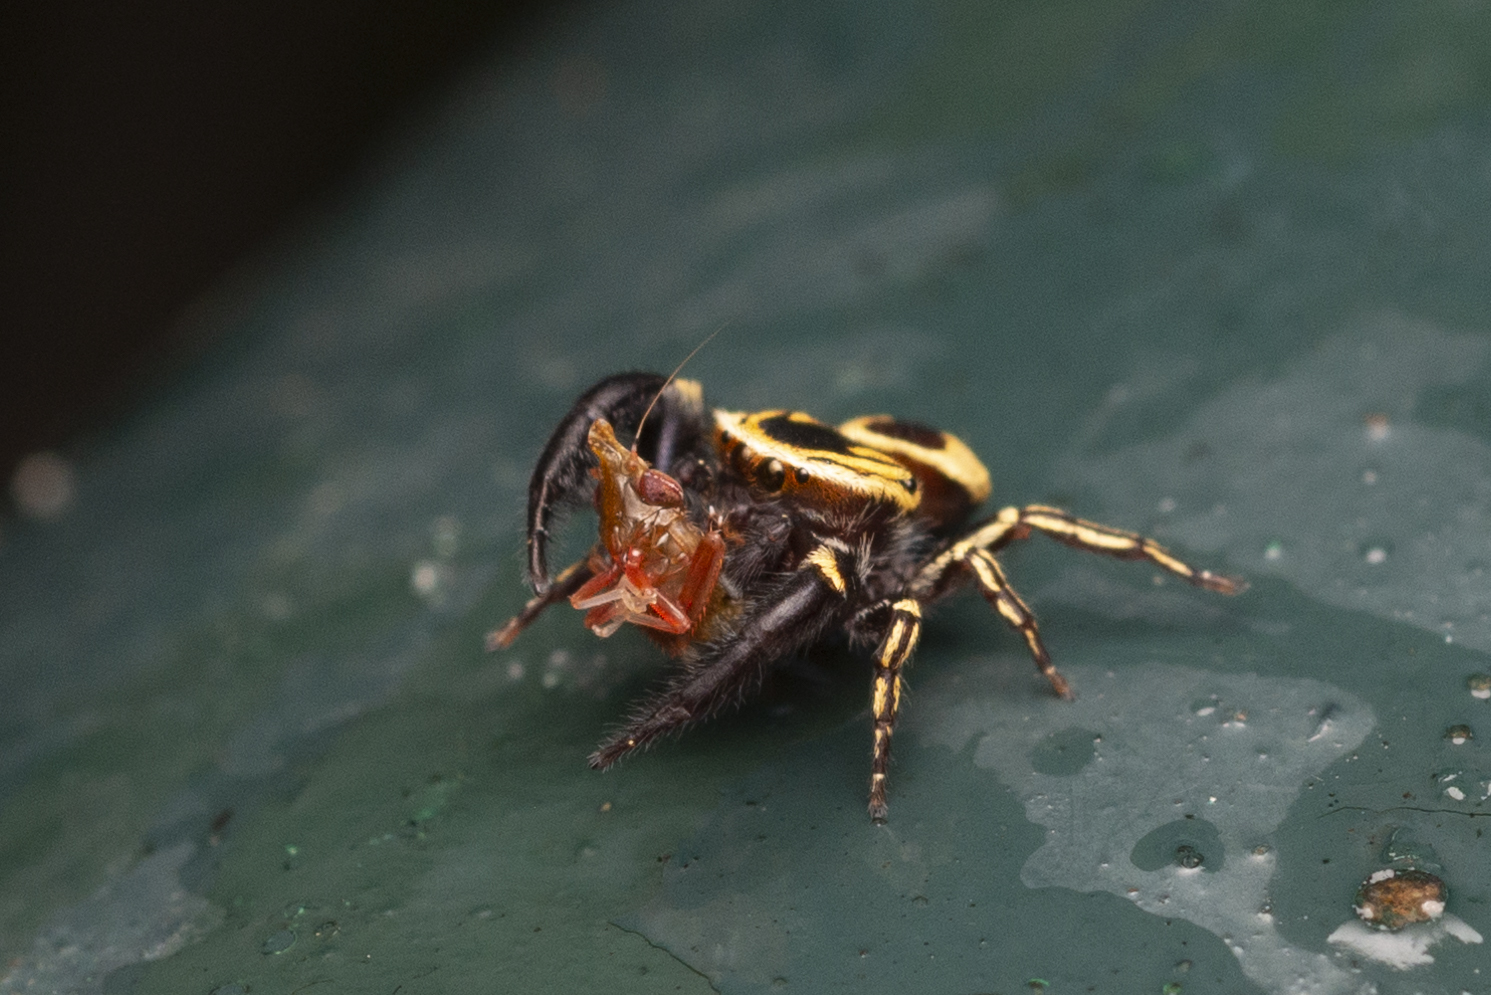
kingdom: Animalia
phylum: Arthropoda
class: Arachnida
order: Araneae
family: Salticidae
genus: Rhene
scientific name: Rhene flavicomans
